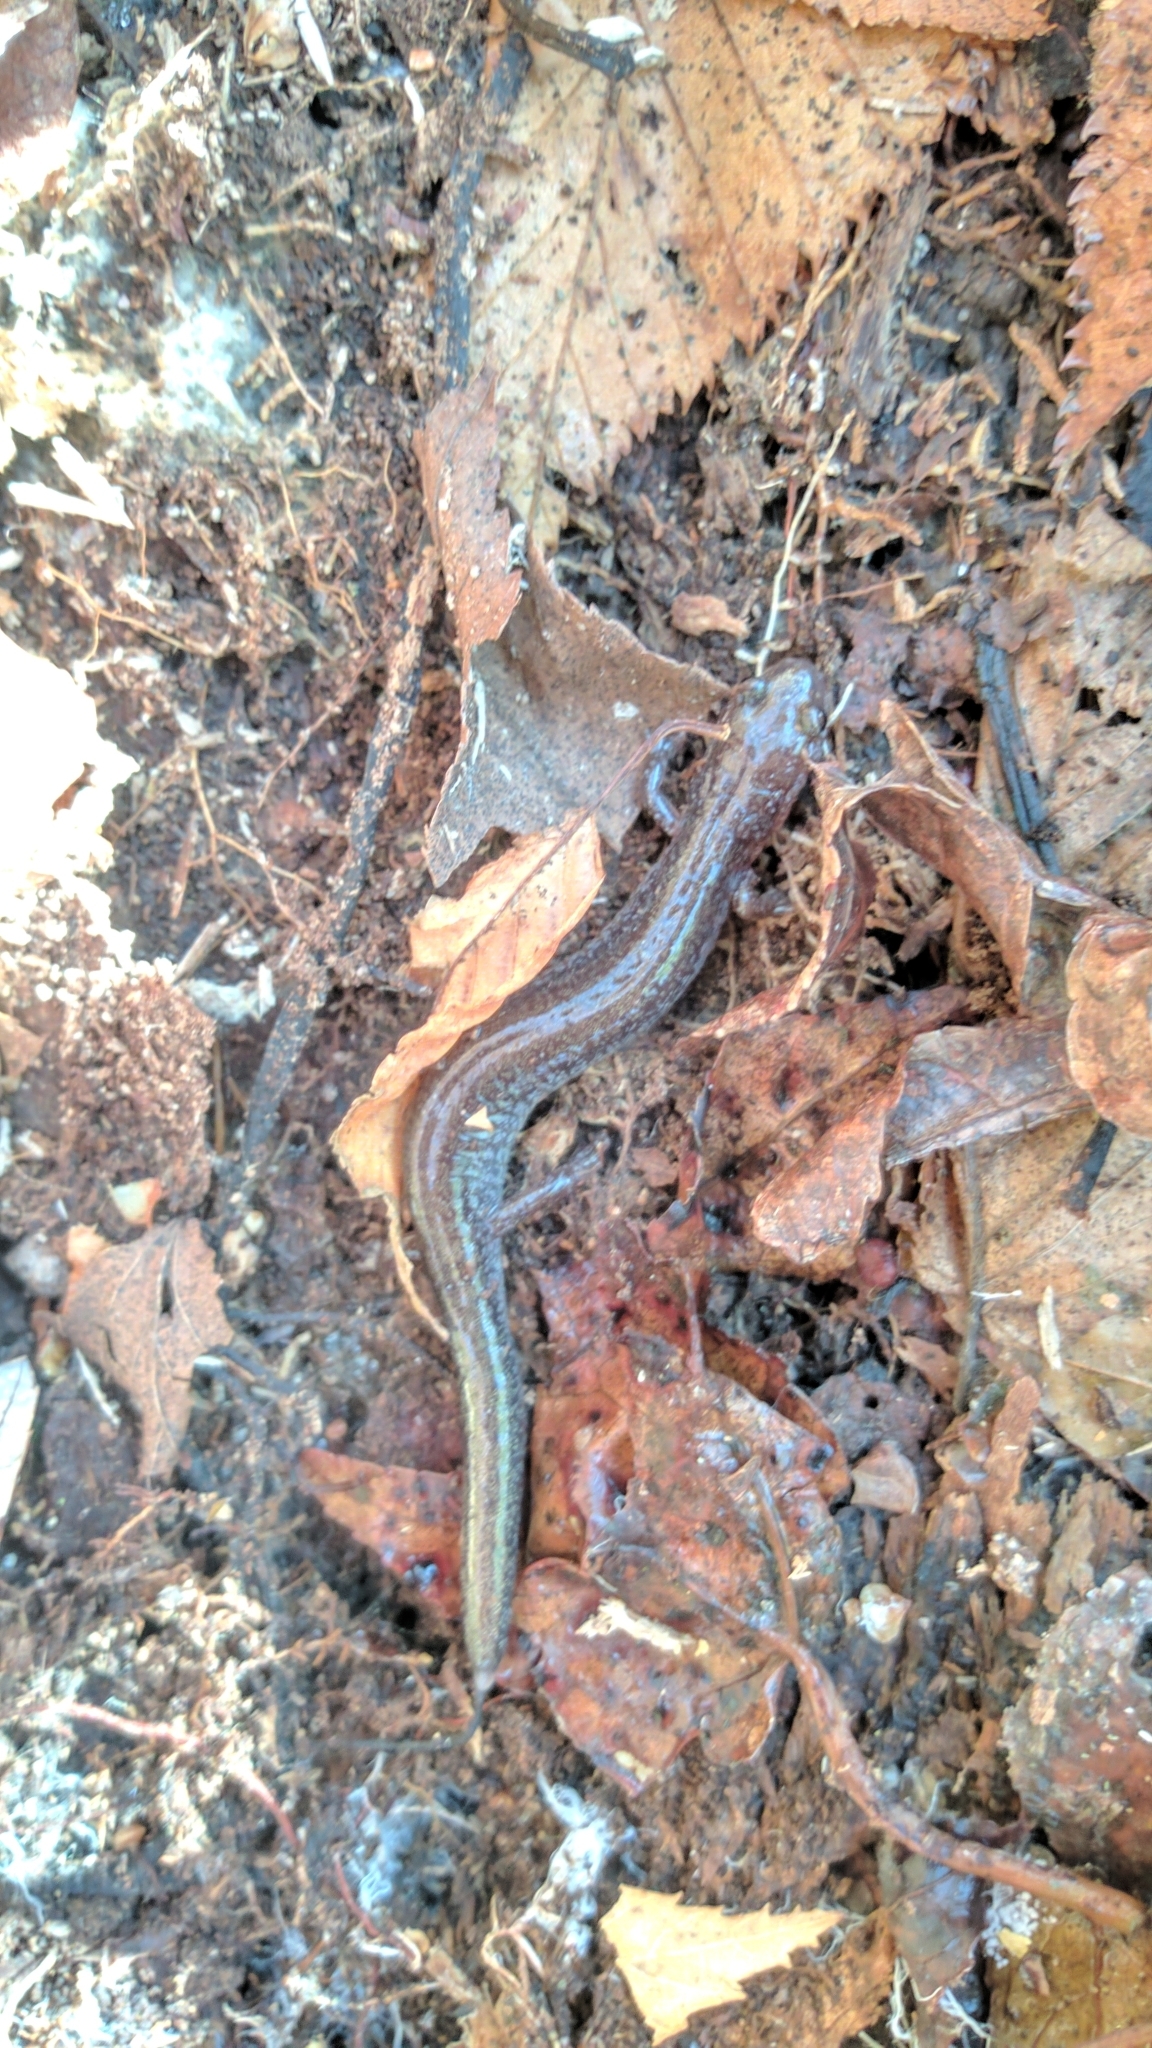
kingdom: Animalia
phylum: Chordata
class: Amphibia
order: Caudata
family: Plethodontidae
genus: Plethodon
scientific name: Plethodon cinereus
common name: Redback salamander
